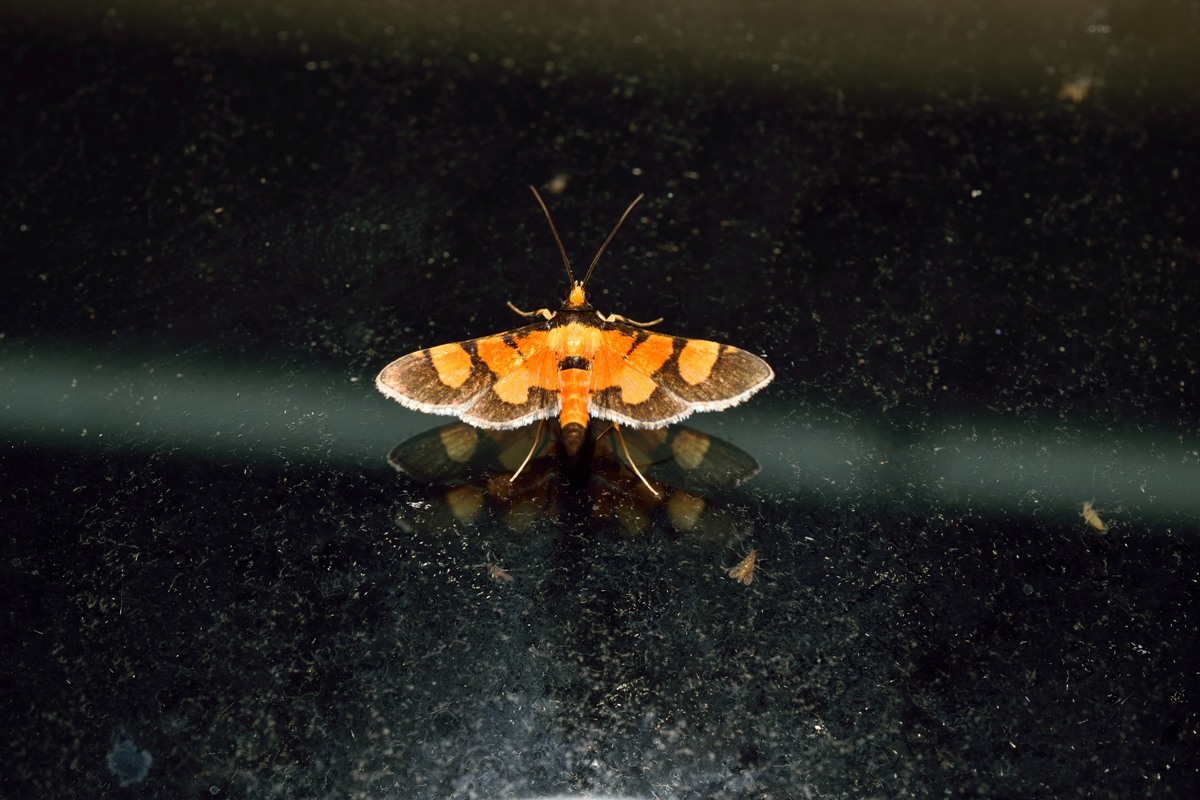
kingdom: Animalia
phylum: Arthropoda
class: Insecta
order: Lepidoptera
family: Crambidae
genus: Aethaloessa
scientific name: Aethaloessa calidalis
